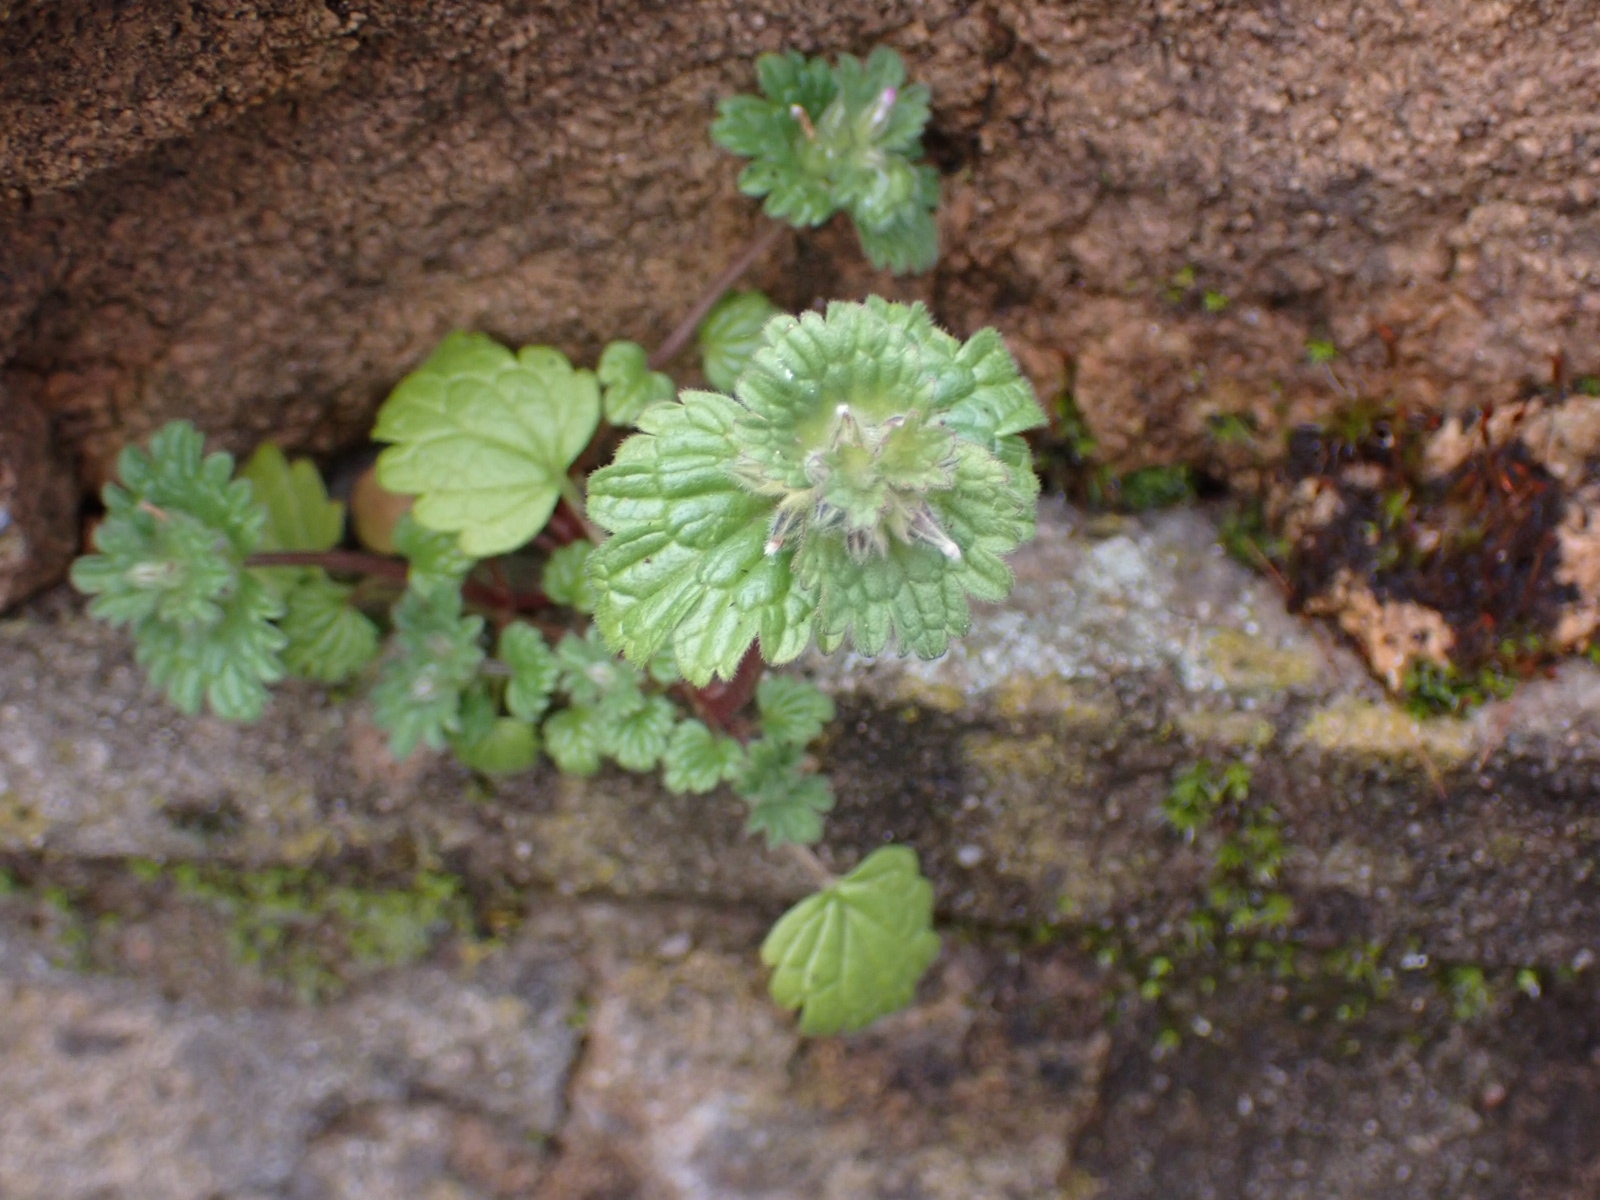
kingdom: Plantae
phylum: Tracheophyta
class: Magnoliopsida
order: Lamiales
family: Lamiaceae
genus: Lamium
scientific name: Lamium amplexicaule
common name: Henbit dead-nettle
